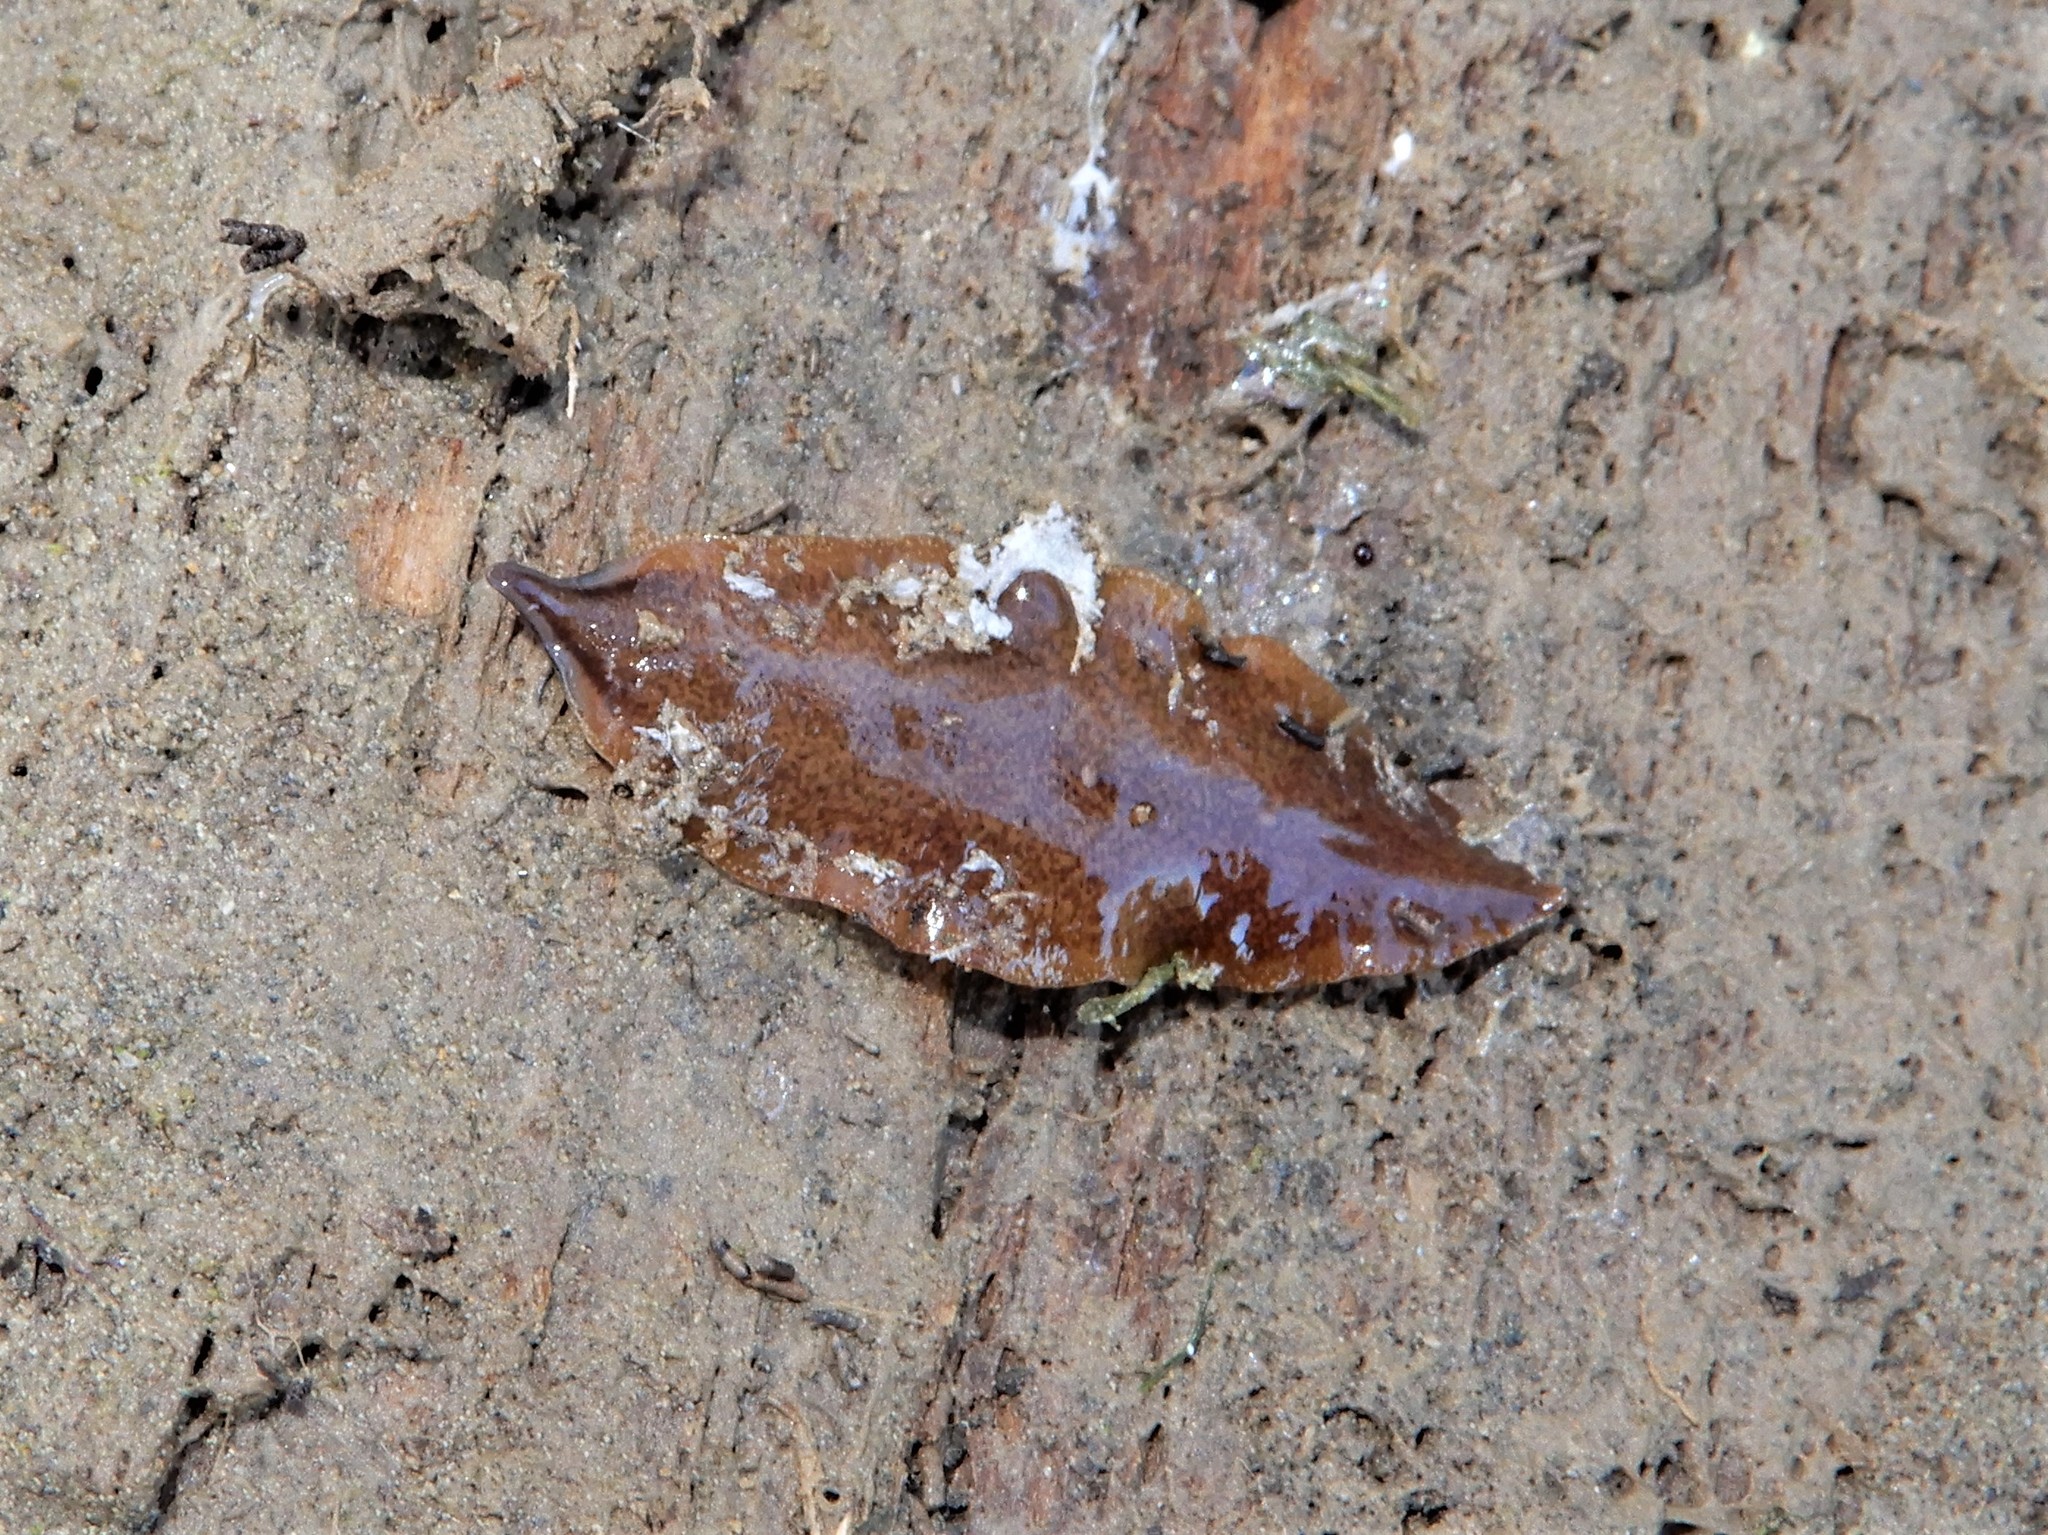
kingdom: Animalia
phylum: Platyhelminthes
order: Tricladida
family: Geoplanidae
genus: Newzealandia
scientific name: Newzealandia graffii
